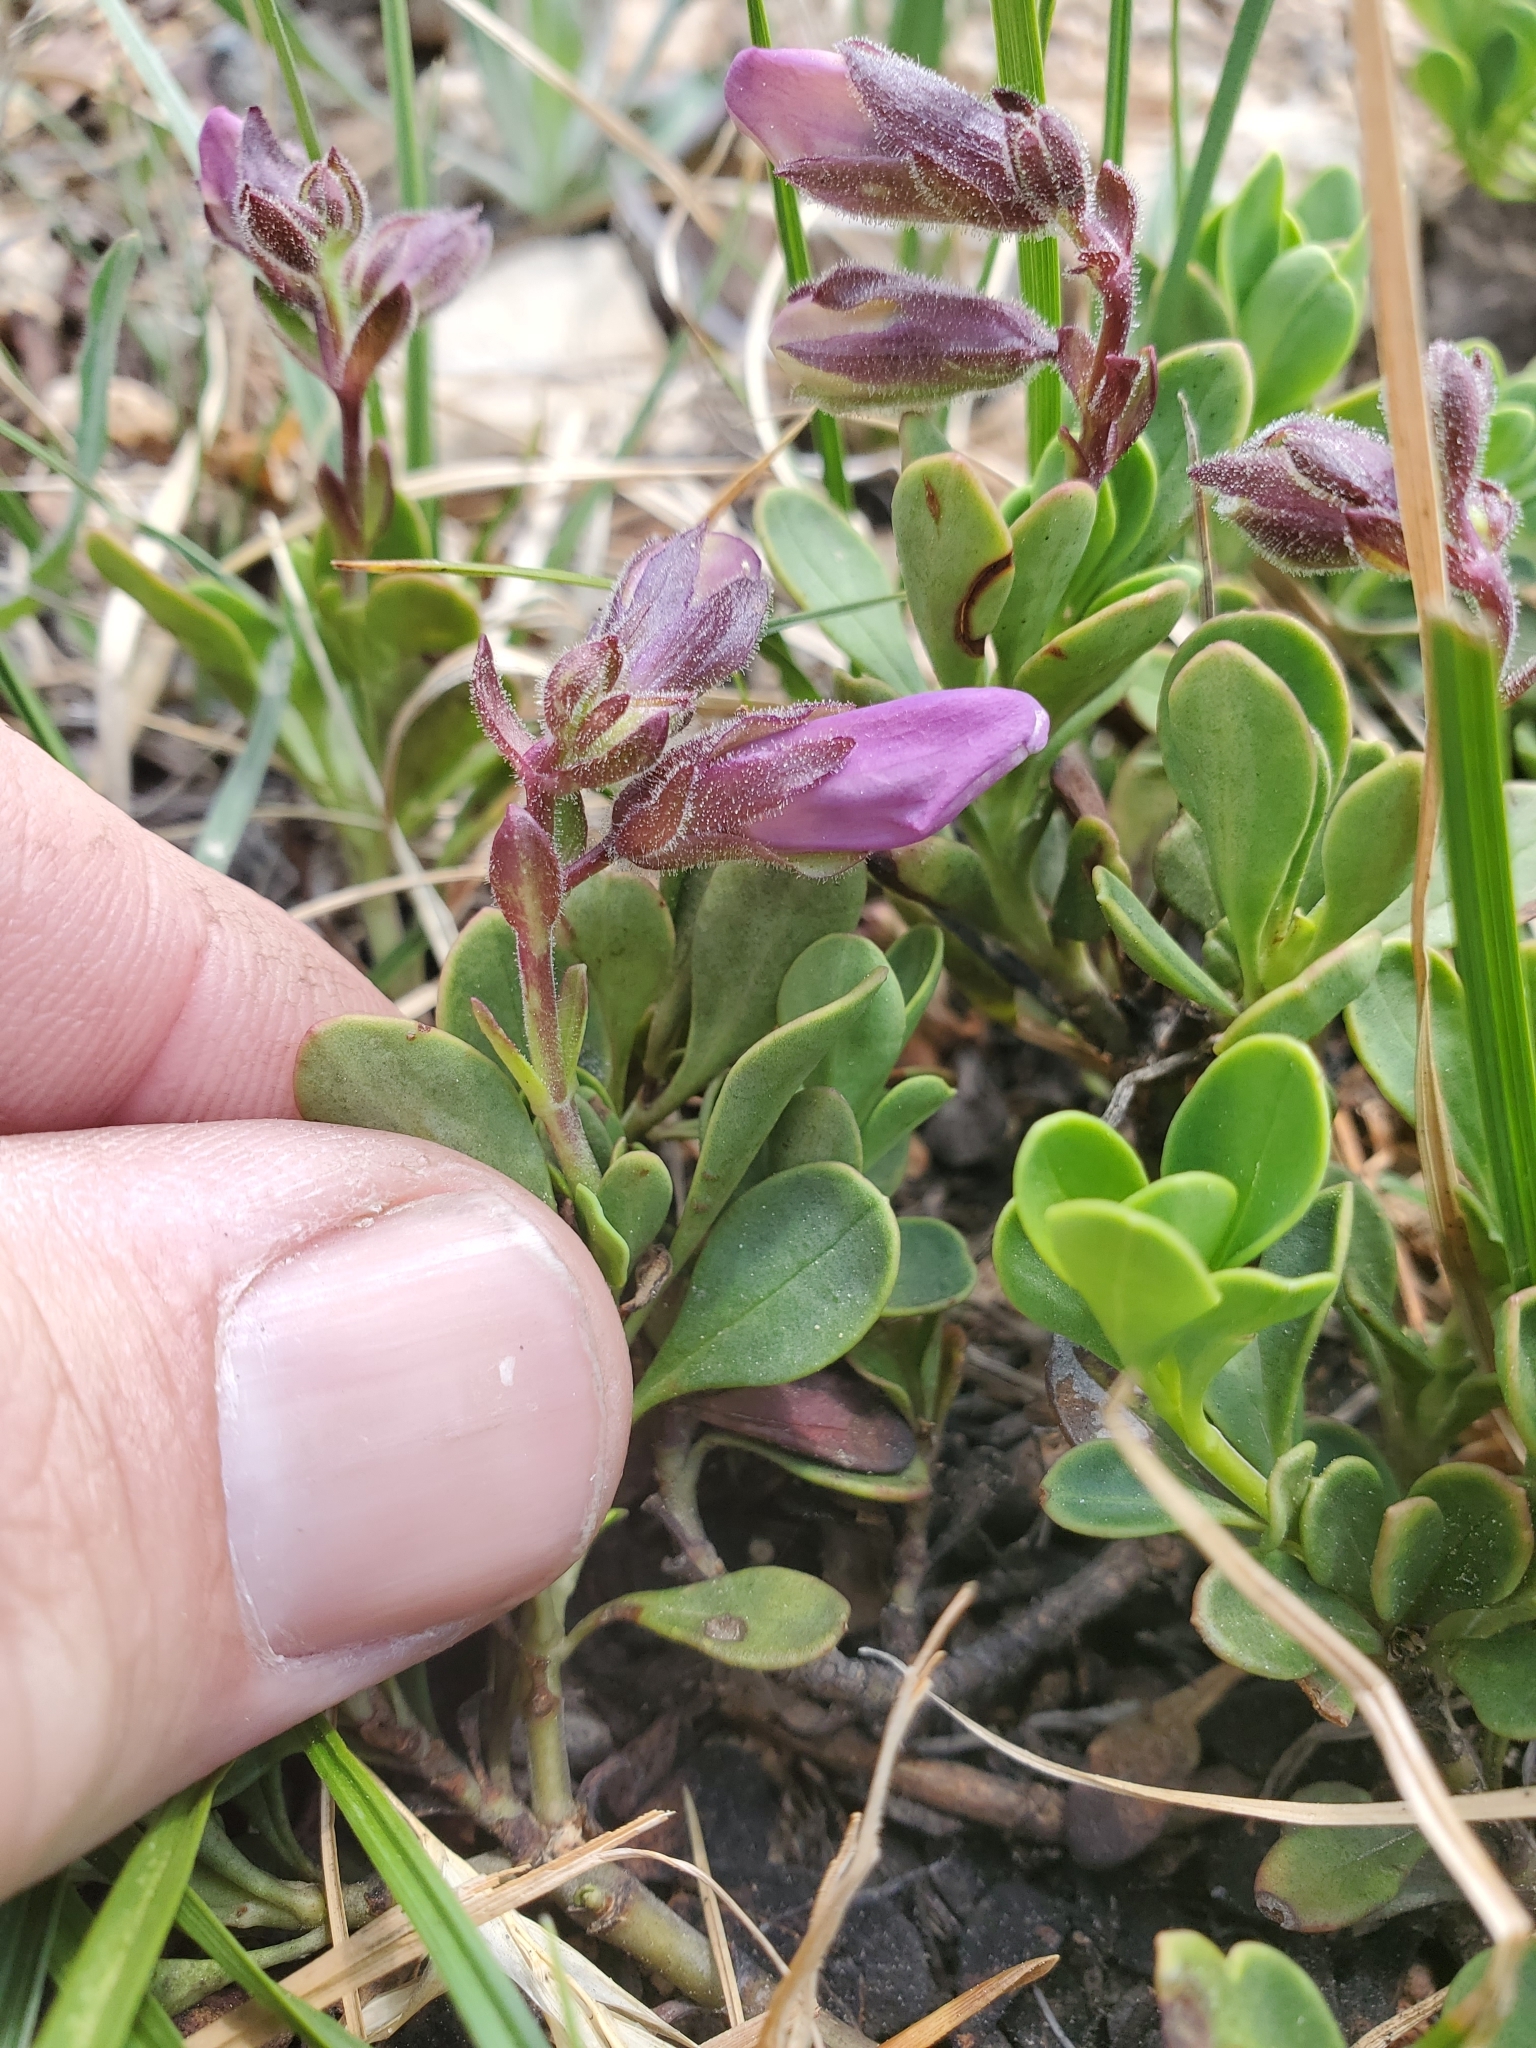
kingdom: Plantae
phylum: Tracheophyta
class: Magnoliopsida
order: Lamiales
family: Plantaginaceae
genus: Penstemon
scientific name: Penstemon davidsonii
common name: Davidson's penstemon
